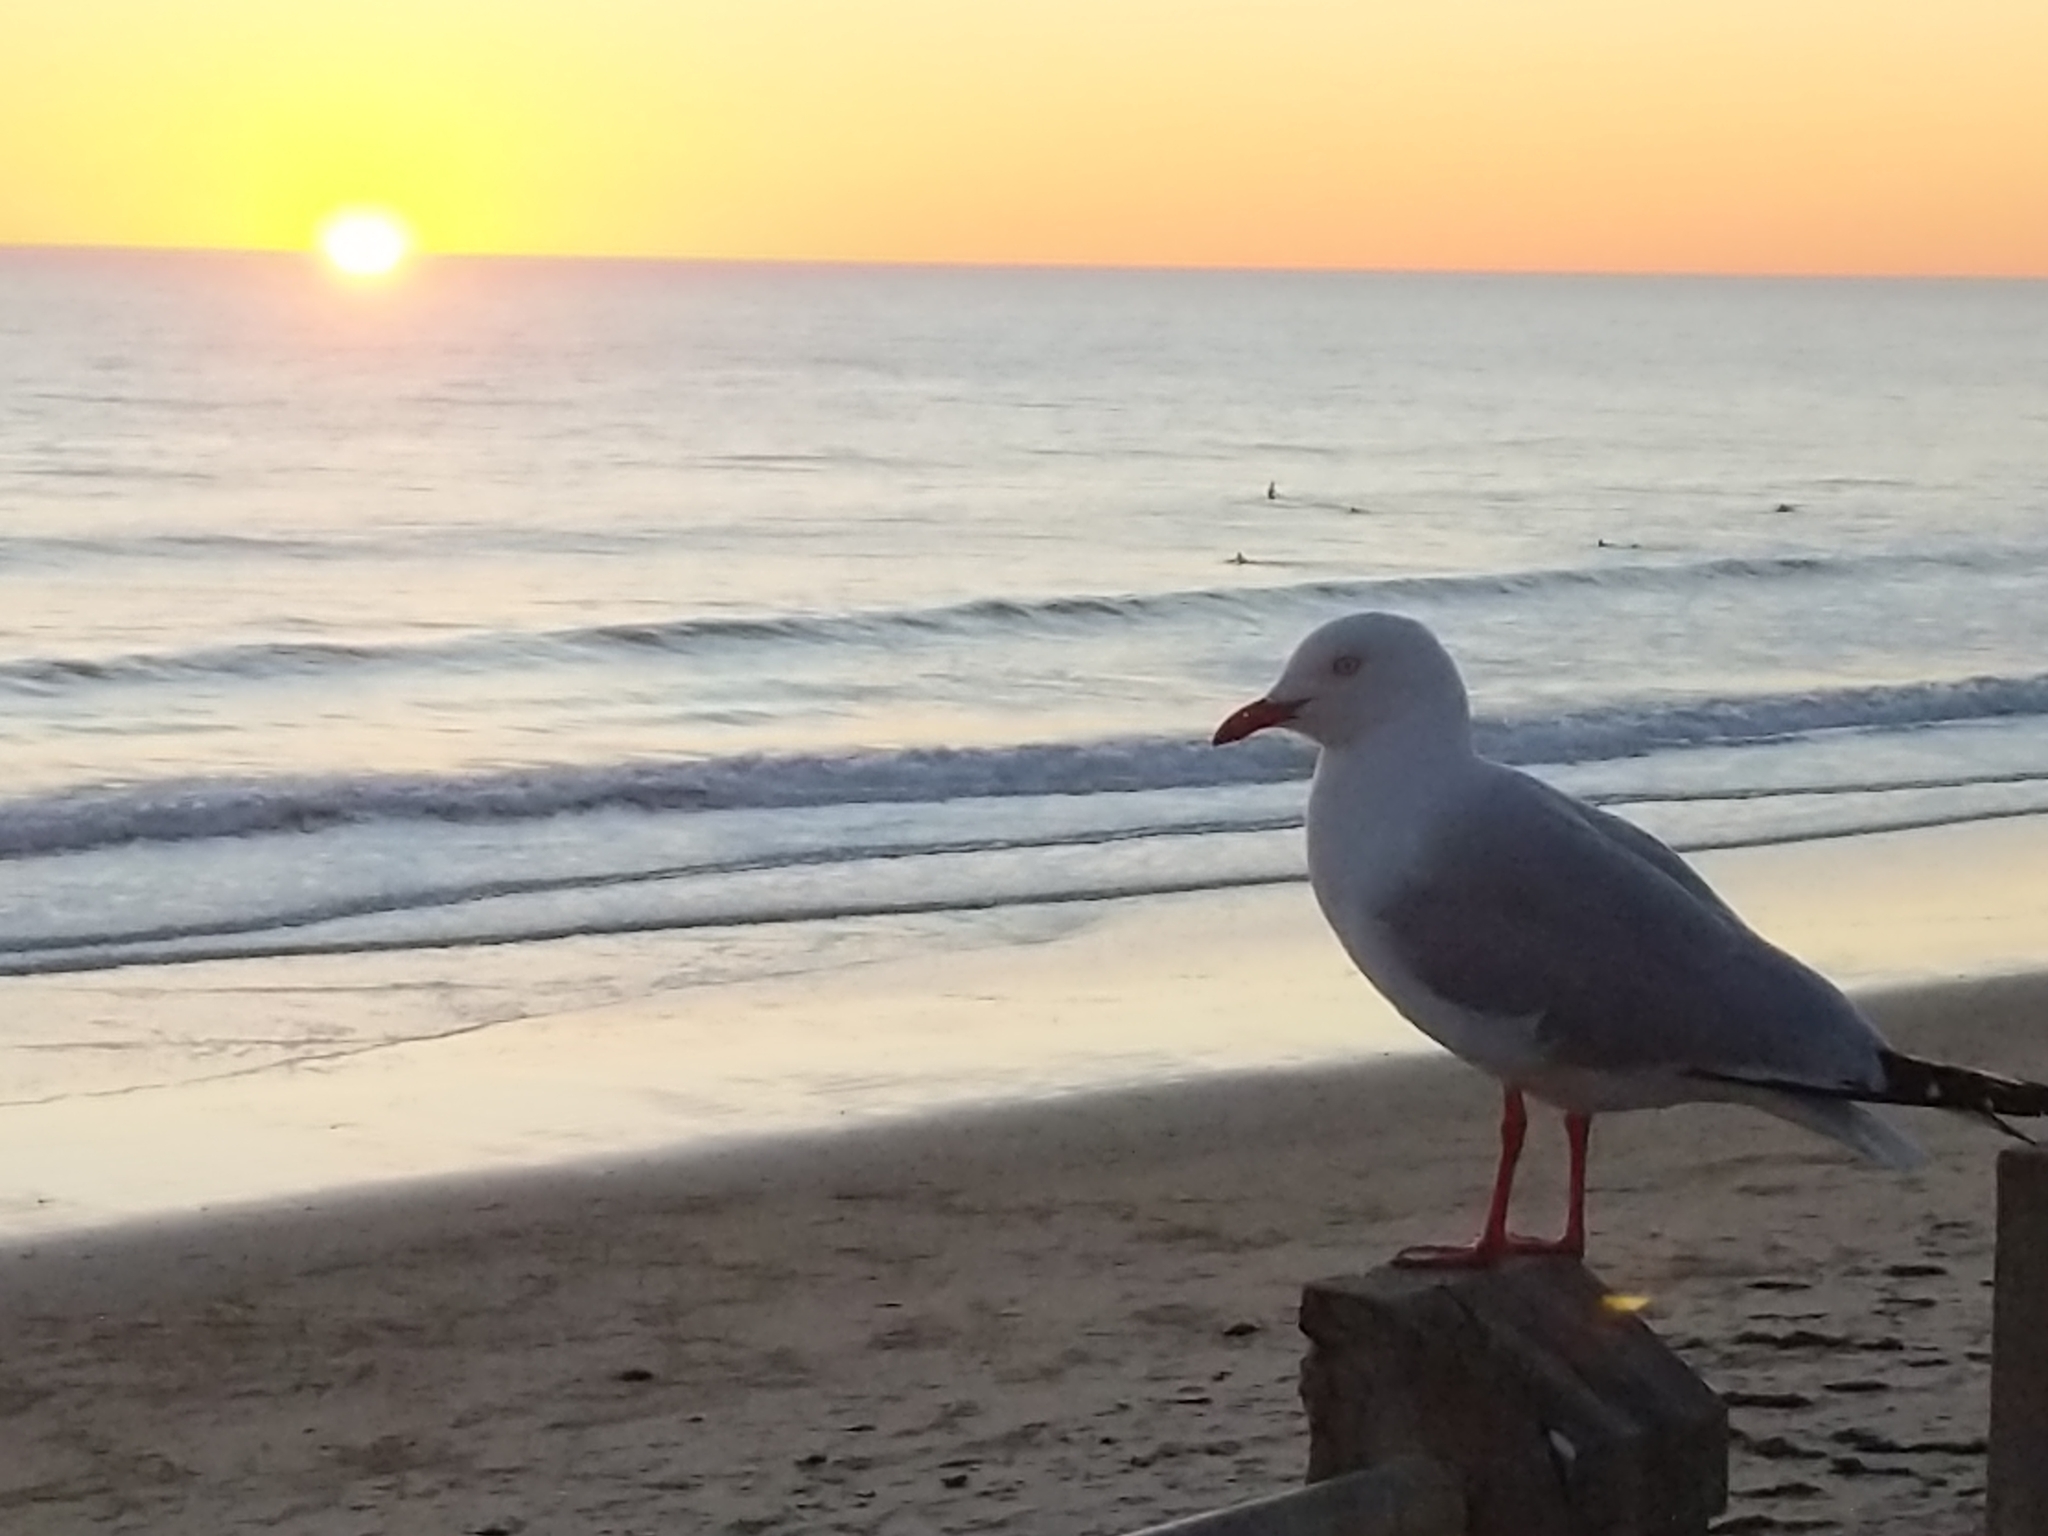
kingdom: Animalia
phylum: Chordata
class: Aves
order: Charadriiformes
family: Laridae
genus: Chroicocephalus
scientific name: Chroicocephalus novaehollandiae
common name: Silver gull
